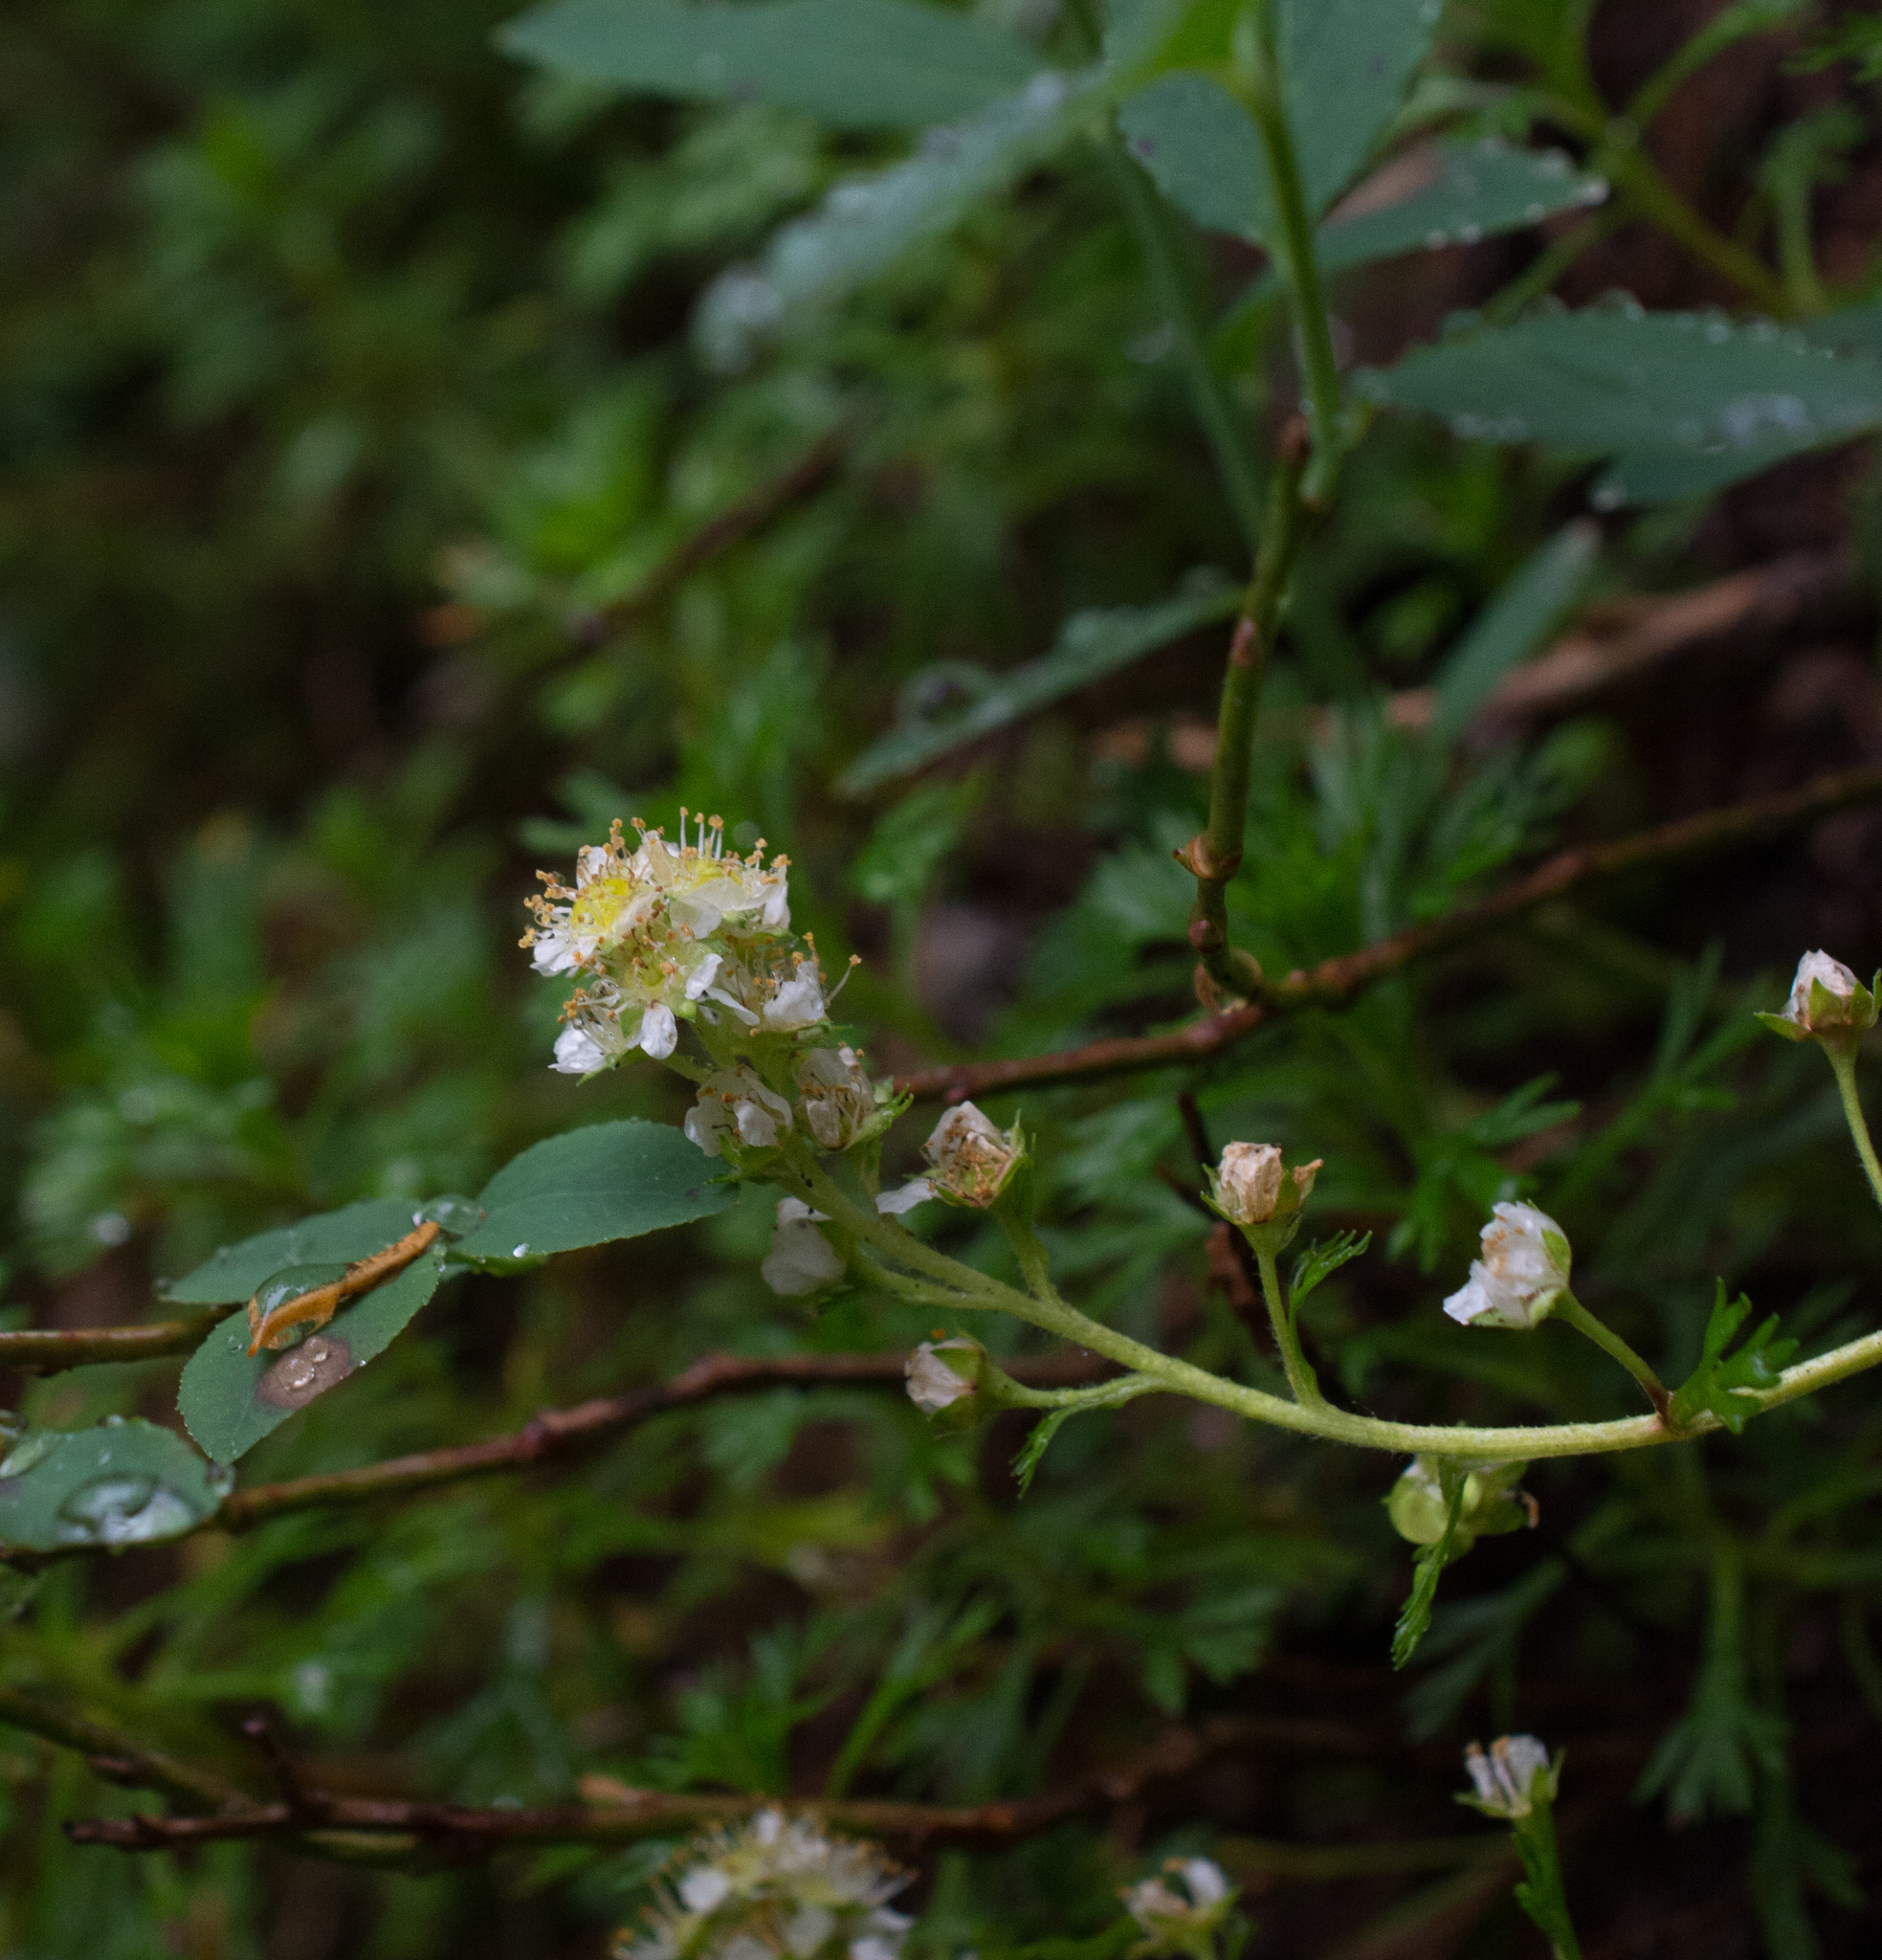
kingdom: Plantae
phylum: Tracheophyta
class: Magnoliopsida
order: Rosales
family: Rosaceae
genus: Luetkea
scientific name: Luetkea pectinata
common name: Partridgefoot
